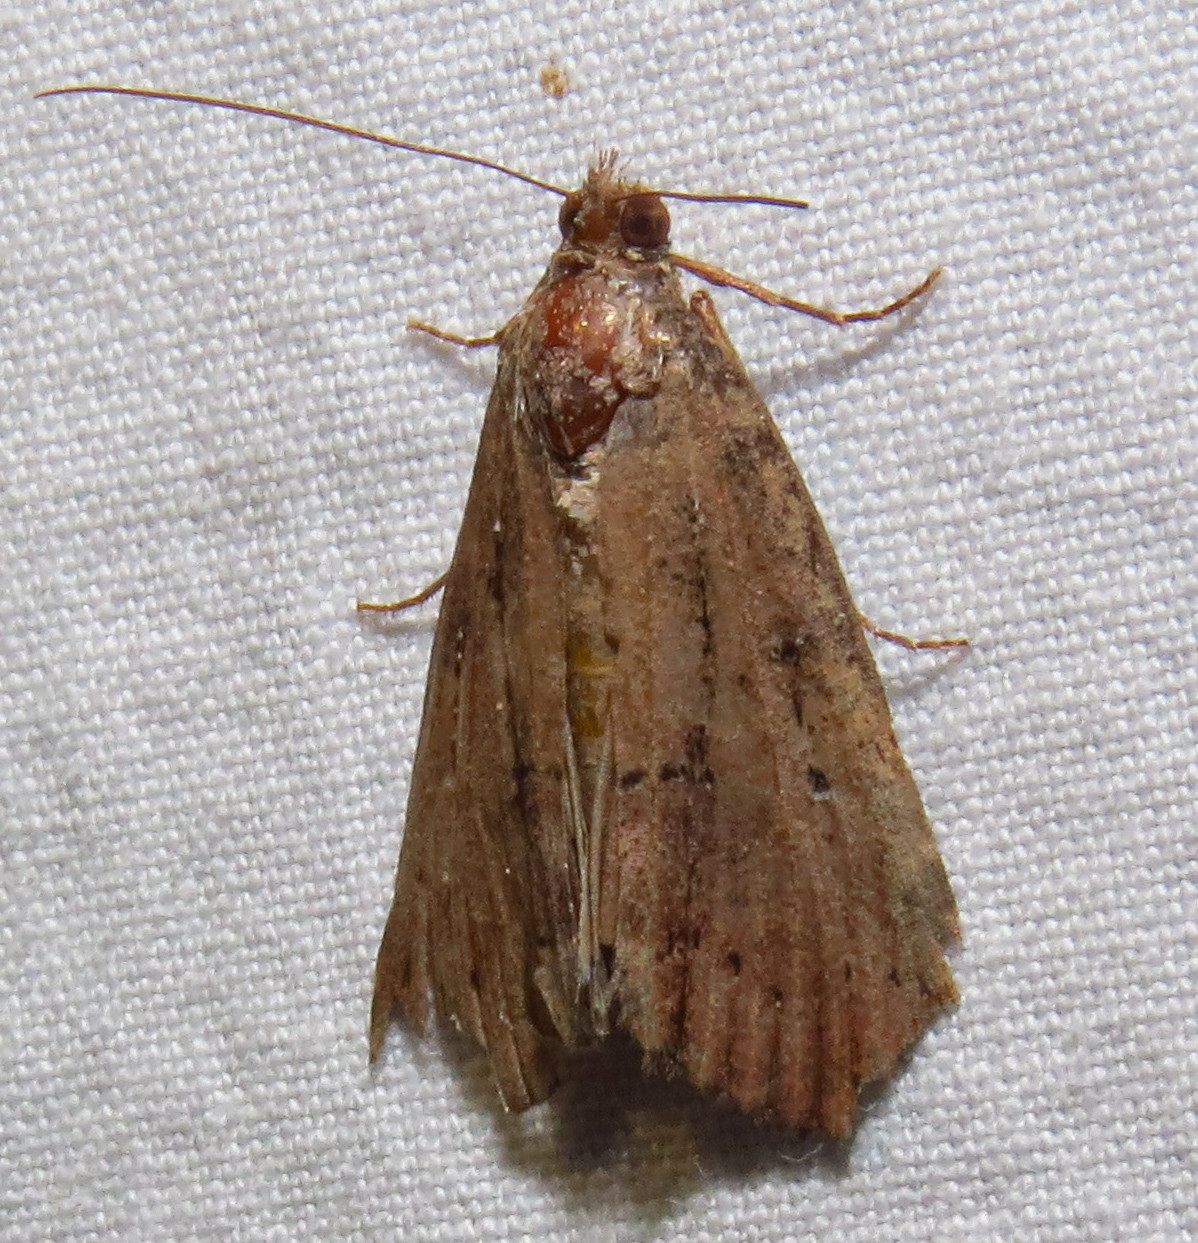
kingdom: Animalia
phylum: Arthropoda
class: Insecta
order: Lepidoptera
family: Erebidae
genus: Hypena
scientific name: Hypena scabra
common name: Green cloverworm
